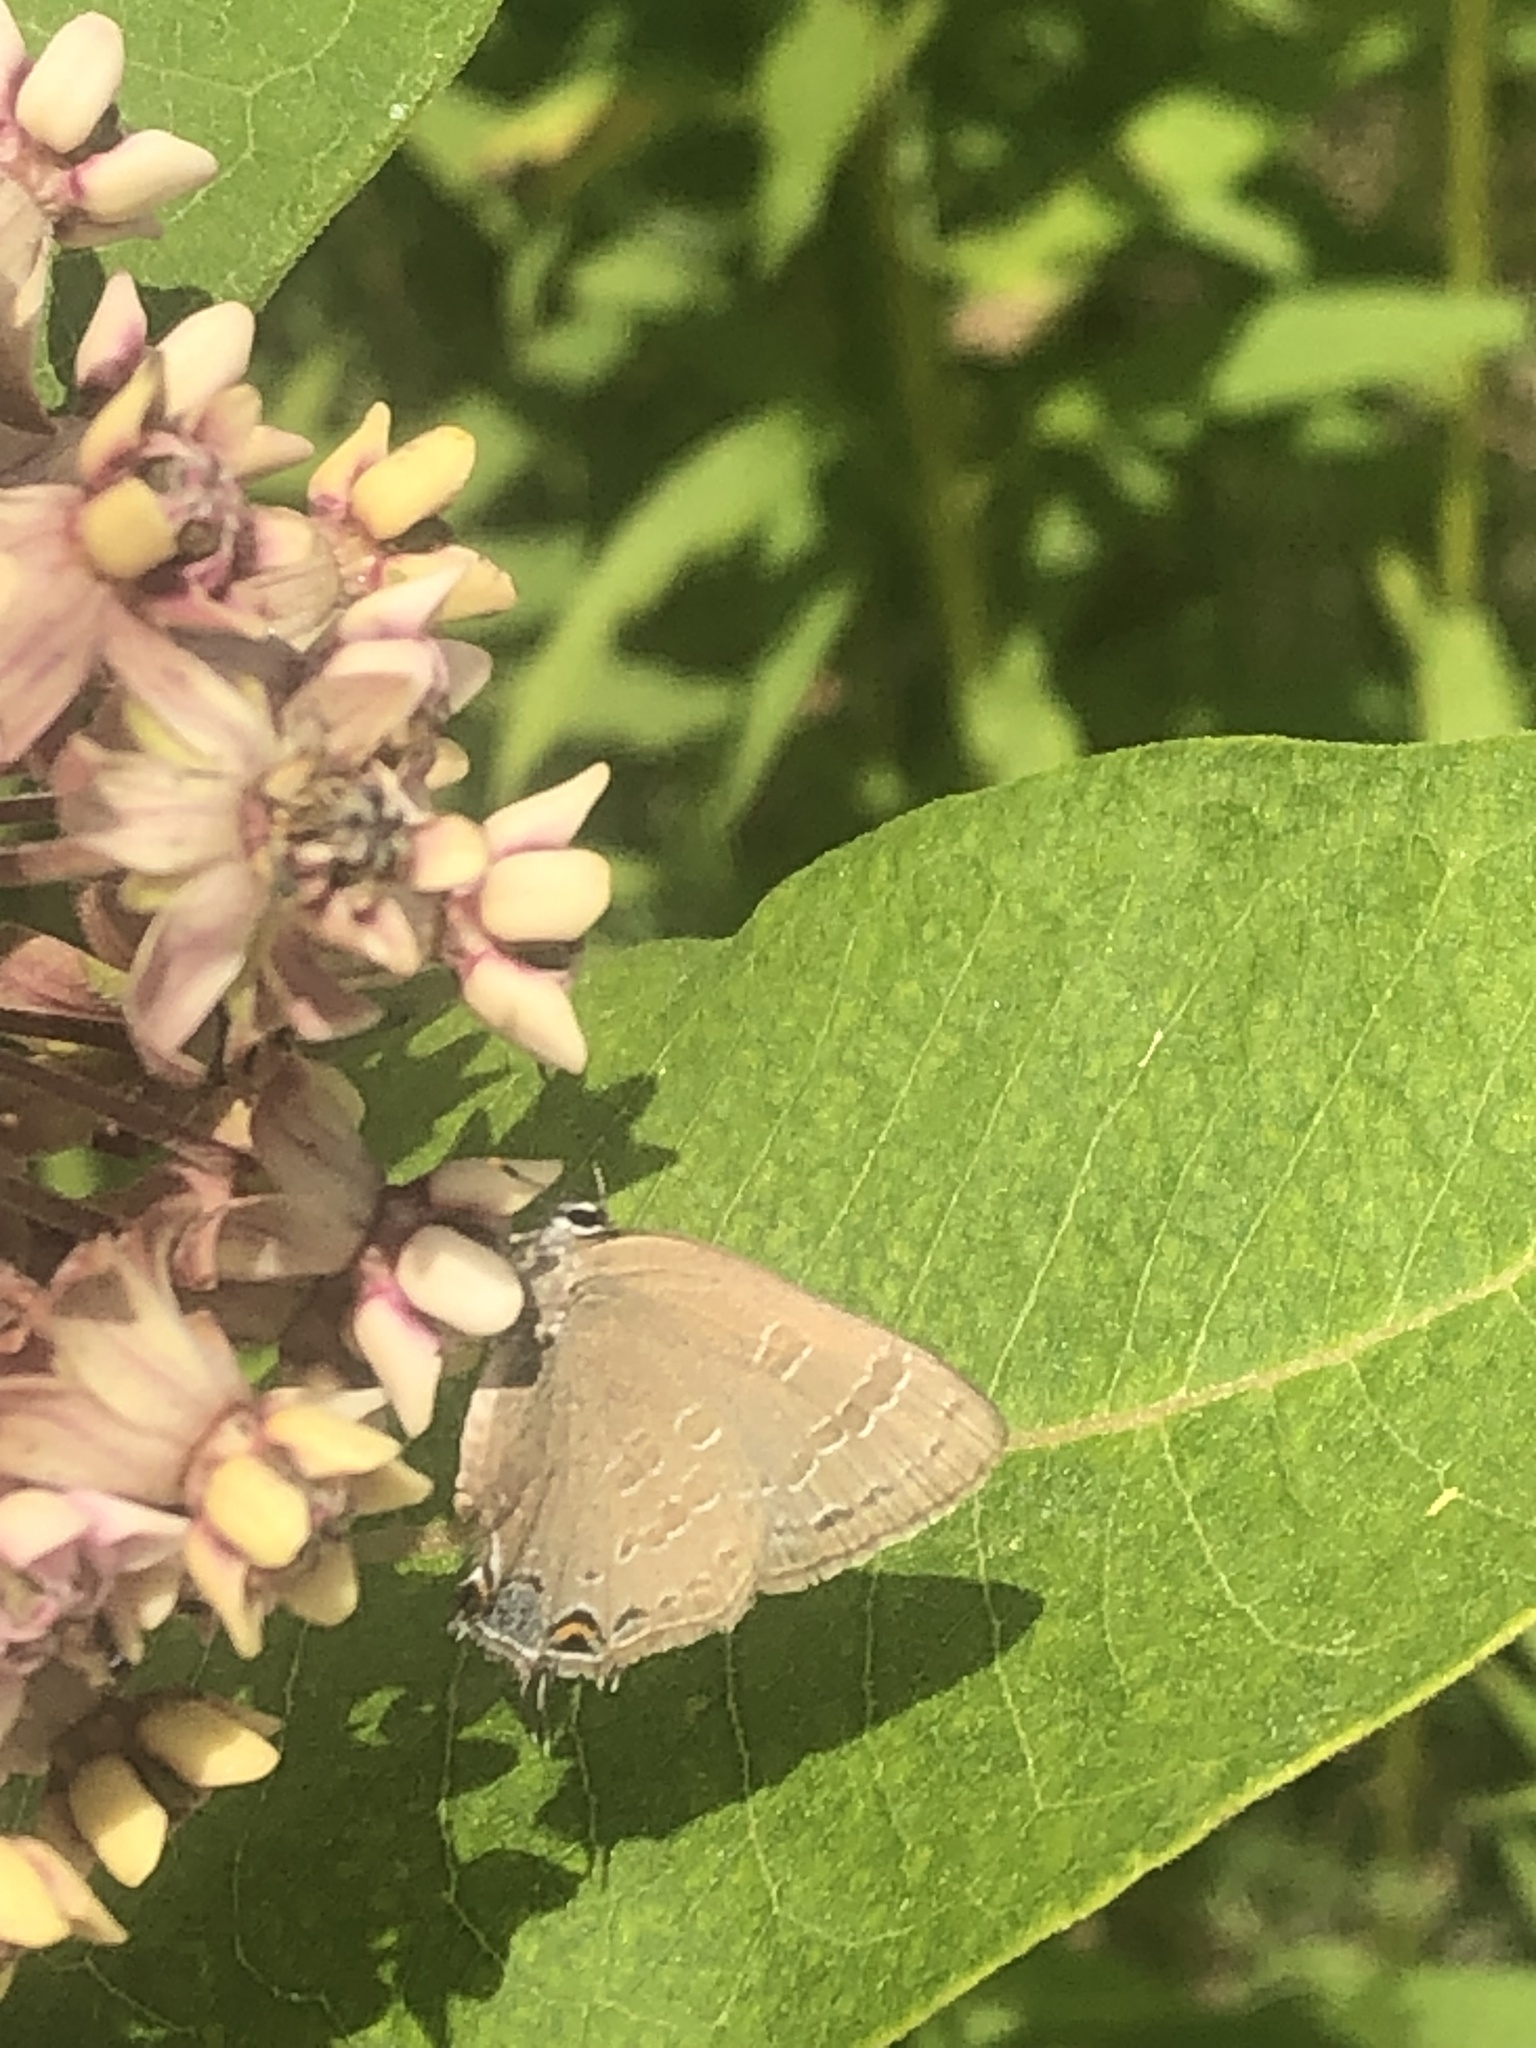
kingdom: Animalia
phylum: Arthropoda
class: Insecta
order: Lepidoptera
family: Lycaenidae
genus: Strymon
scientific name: Strymon caryaevorus
